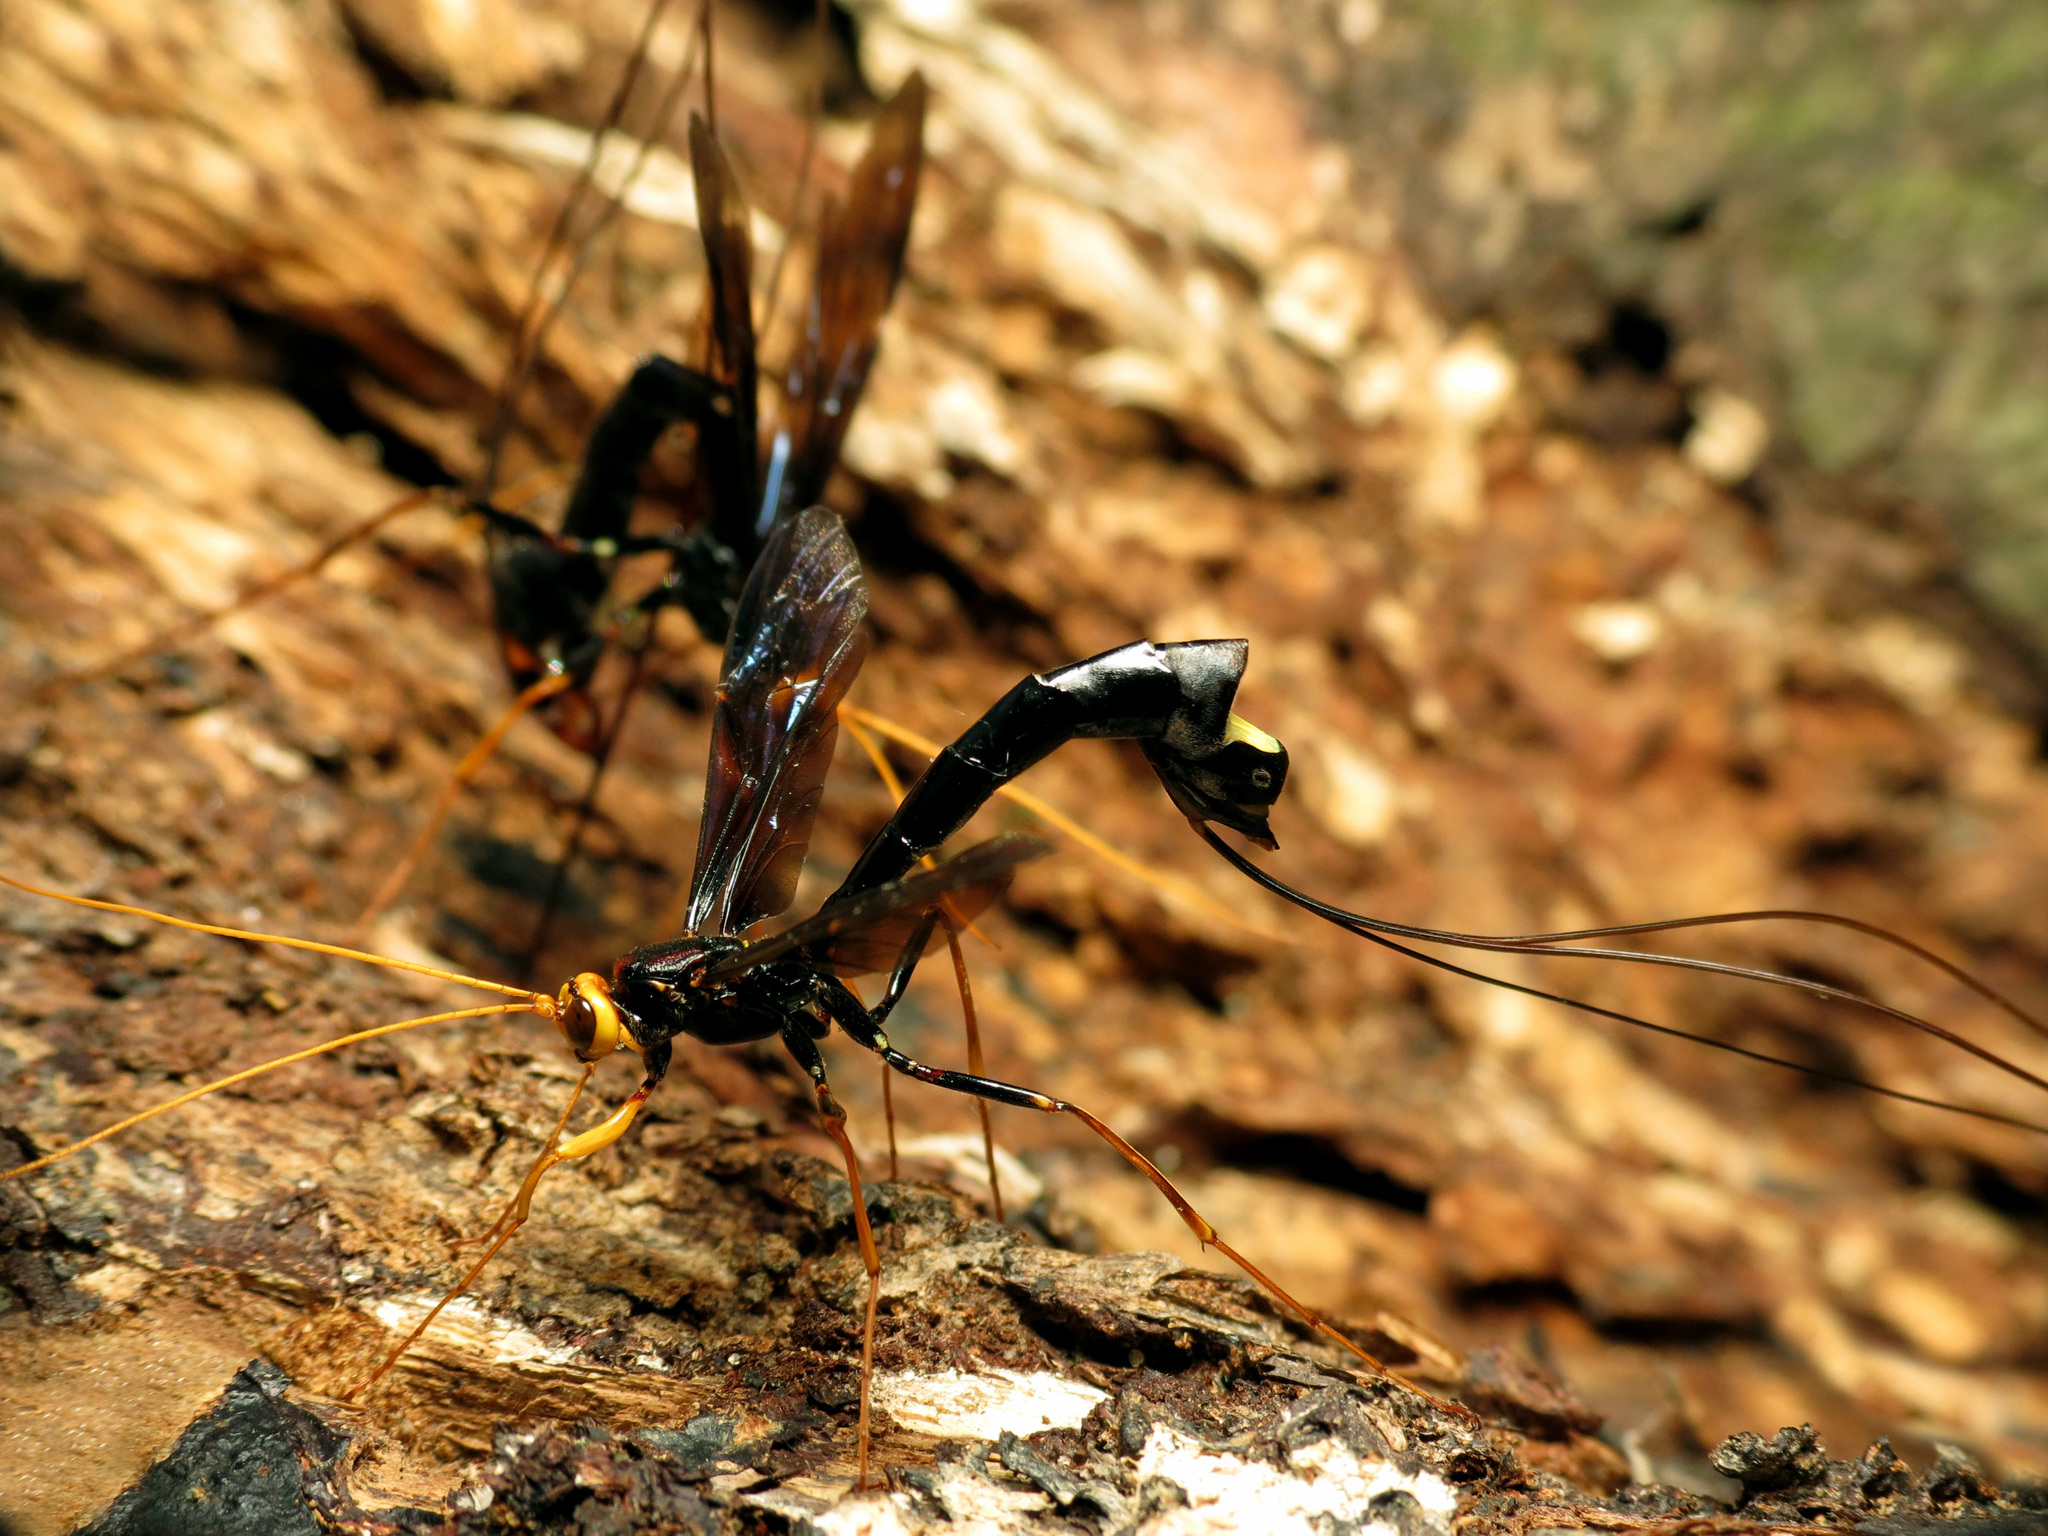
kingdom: Animalia
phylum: Arthropoda
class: Insecta
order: Hymenoptera
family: Ichneumonidae
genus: Megarhyssa
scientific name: Megarhyssa atrata
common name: Black giant ichneumonid wasp
